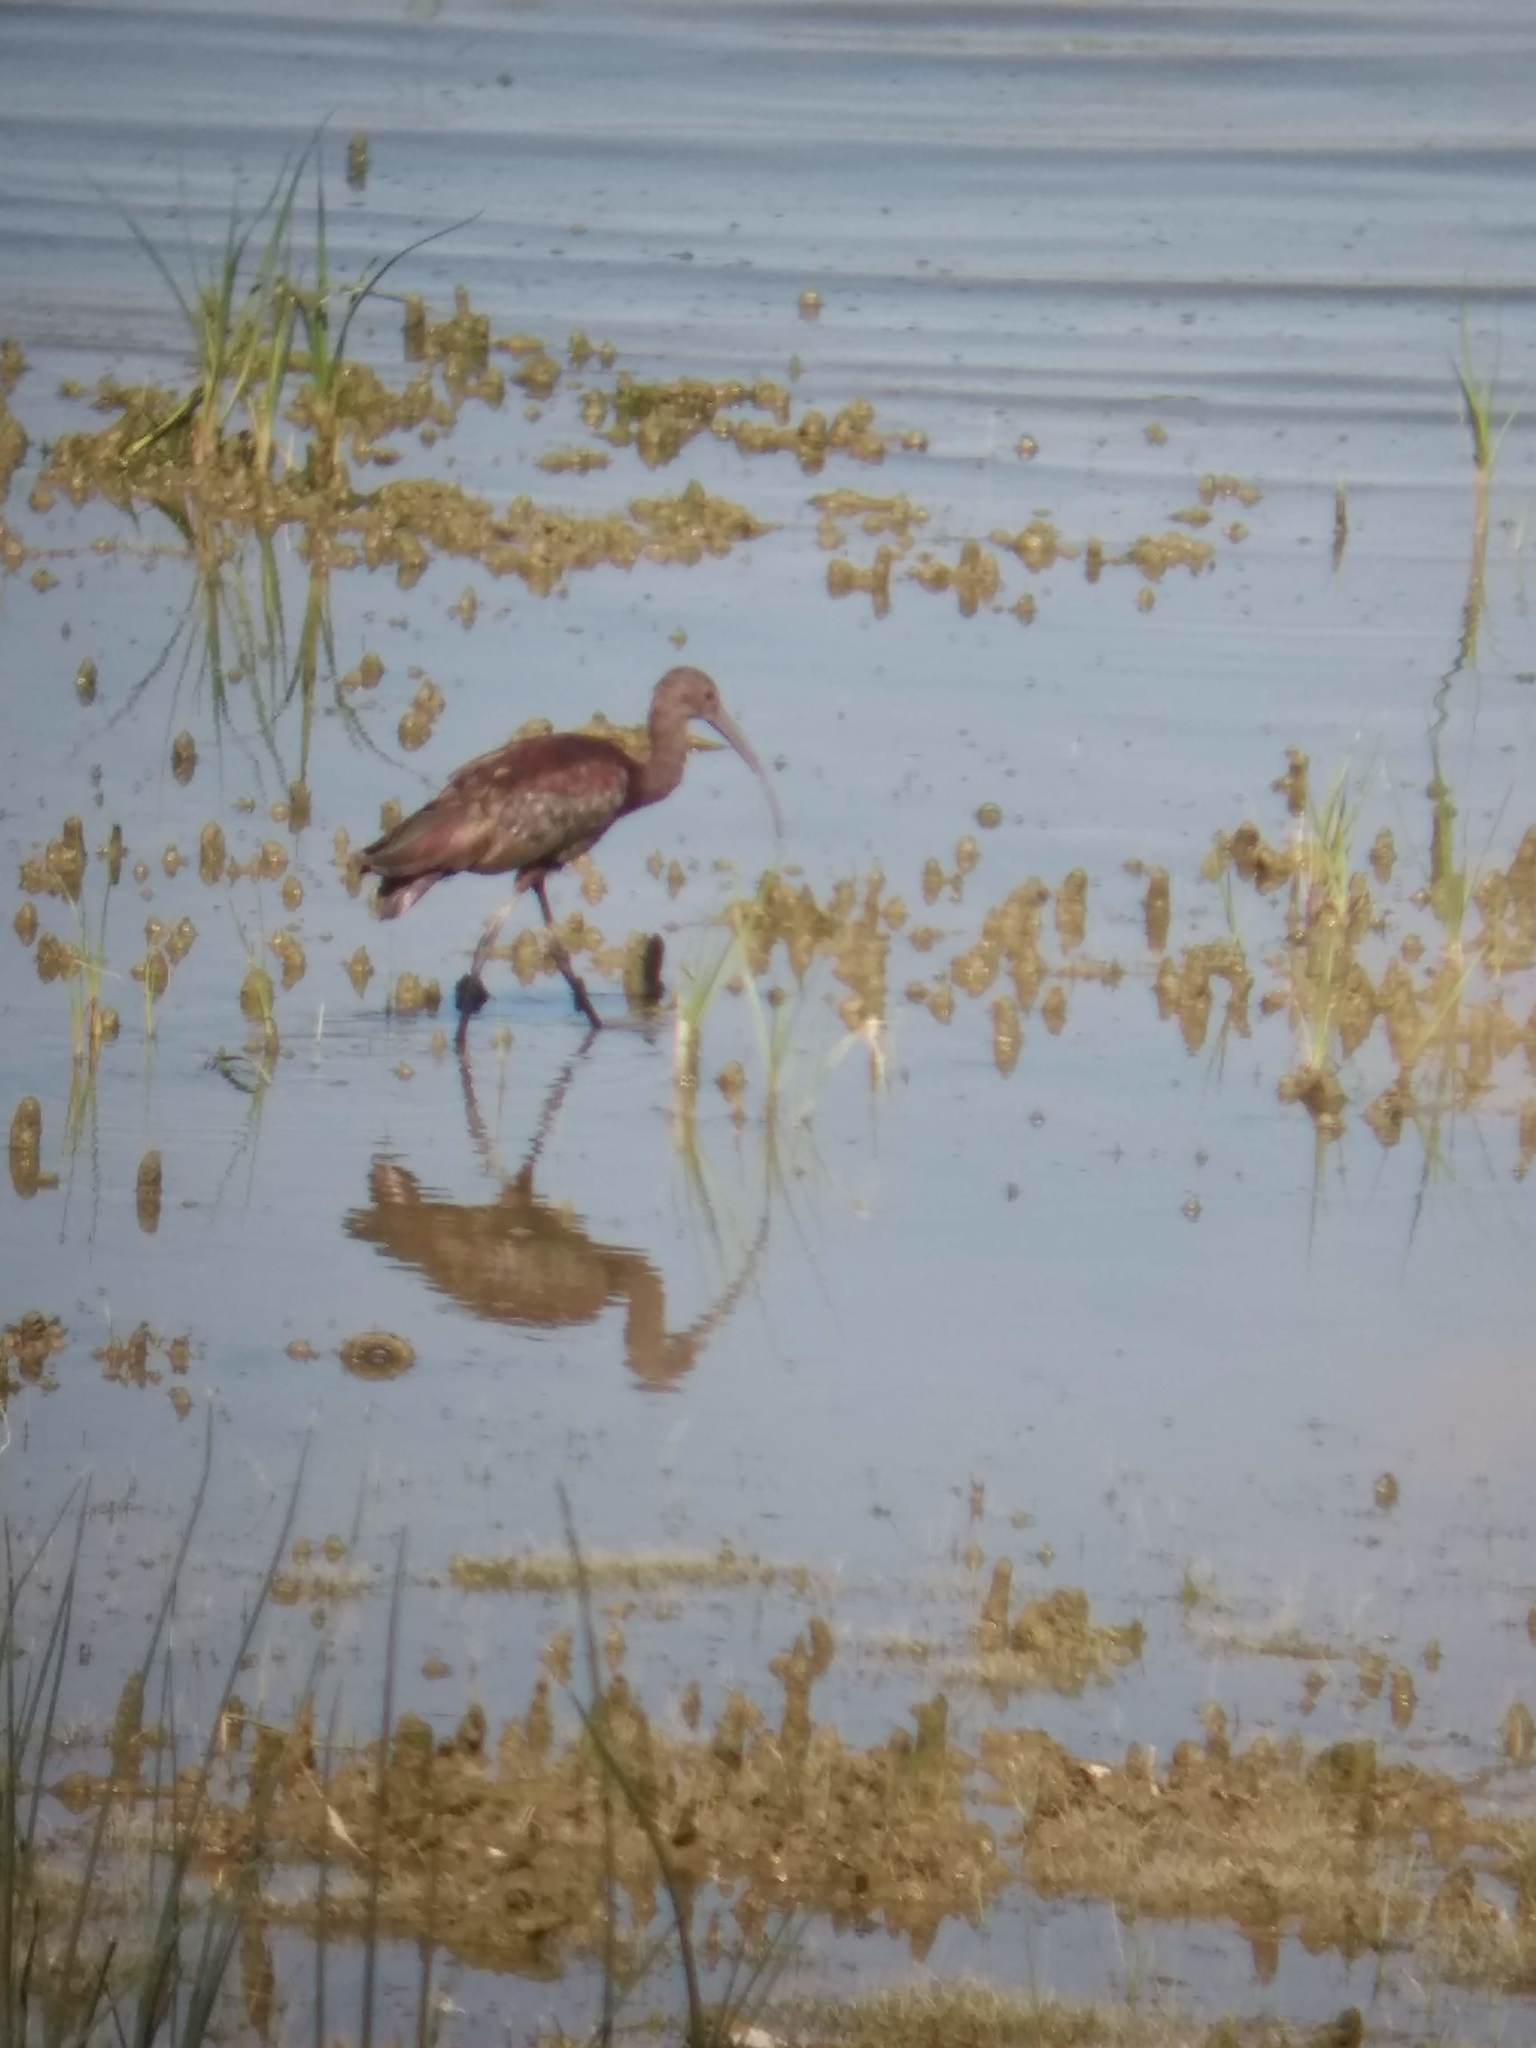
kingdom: Animalia
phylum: Chordata
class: Aves
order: Pelecaniformes
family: Threskiornithidae
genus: Plegadis
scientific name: Plegadis chihi
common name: White-faced ibis
